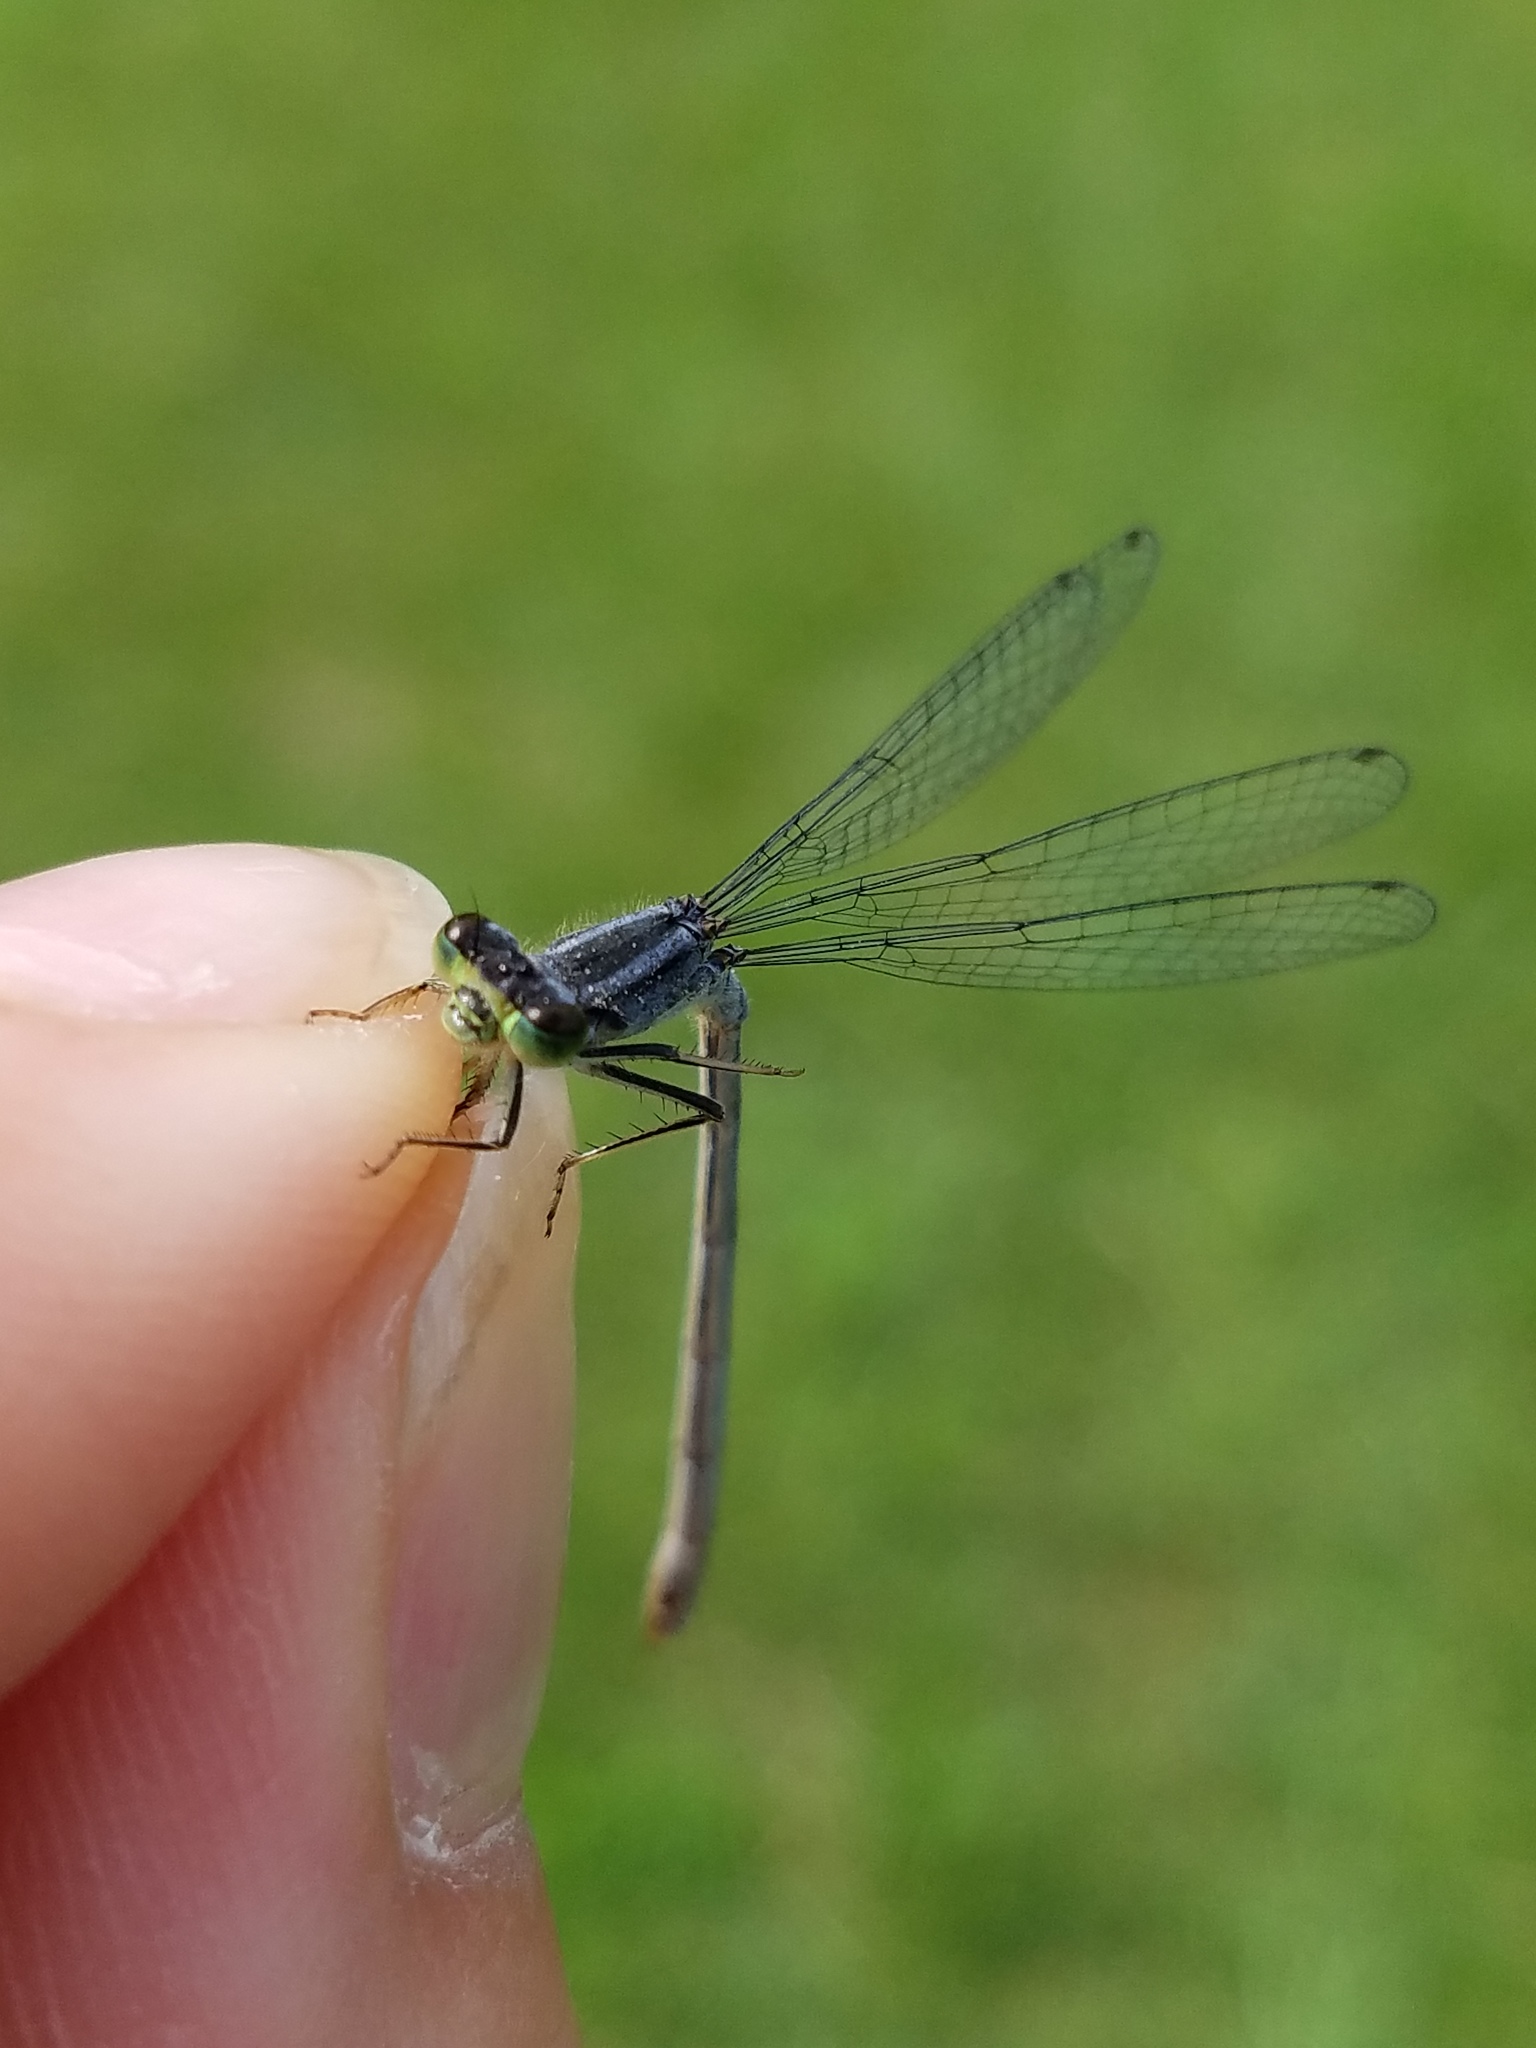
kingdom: Animalia
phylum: Arthropoda
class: Insecta
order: Odonata
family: Coenagrionidae
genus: Ischnura
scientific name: Ischnura verticalis
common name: Eastern forktail
